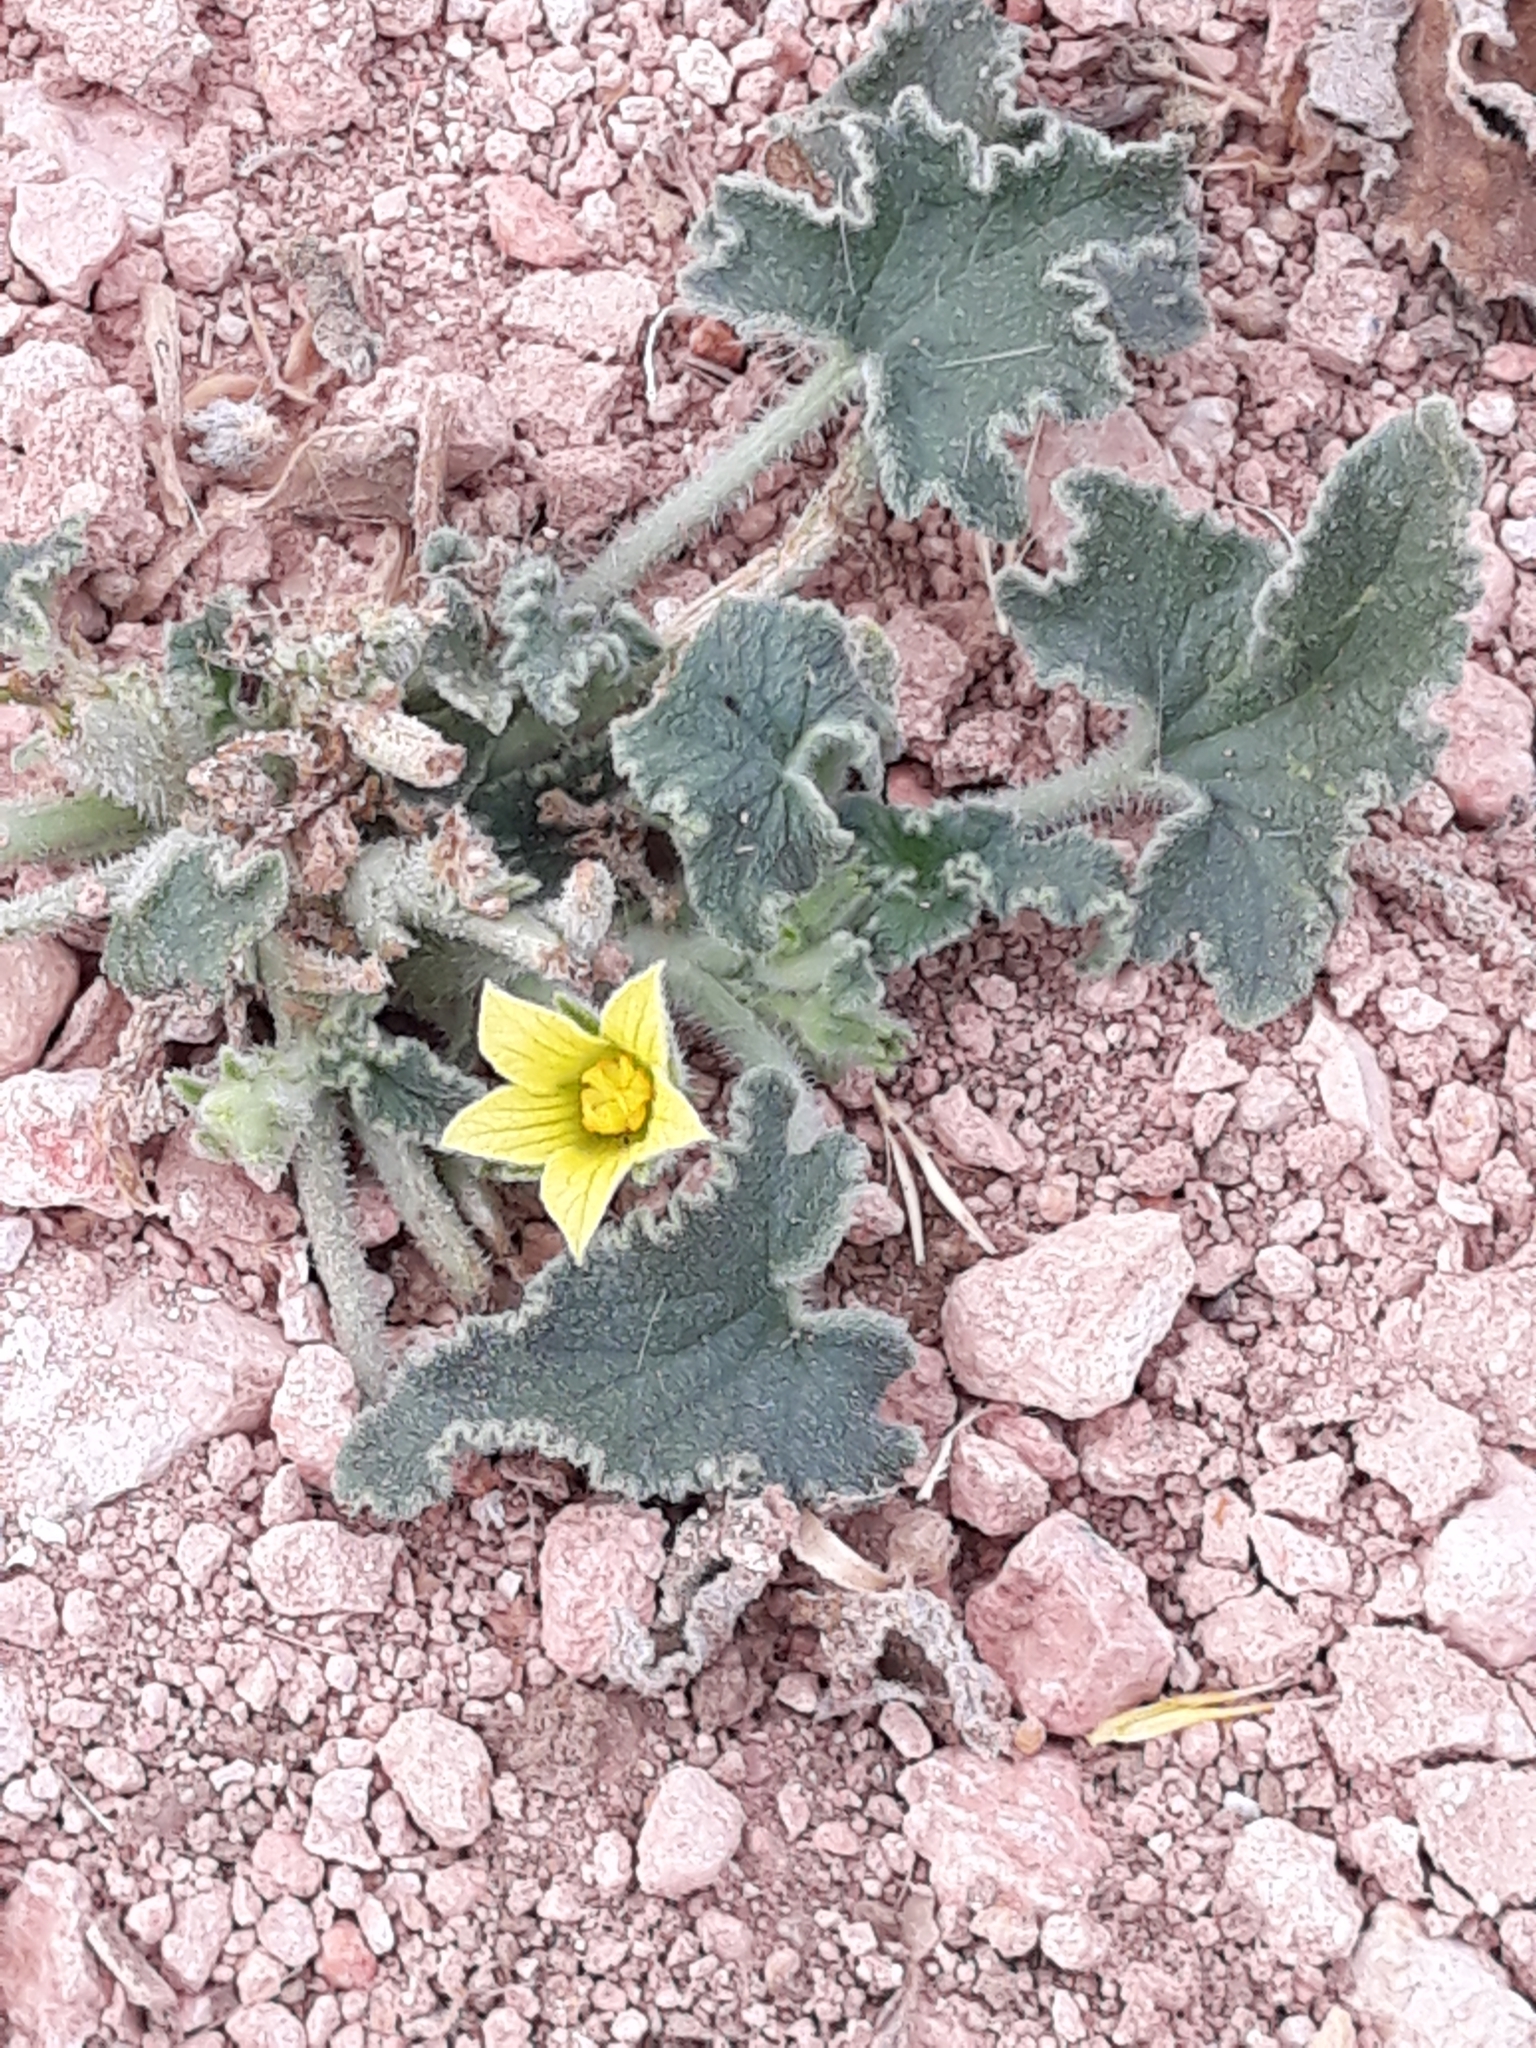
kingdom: Plantae
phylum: Tracheophyta
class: Magnoliopsida
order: Cucurbitales
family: Cucurbitaceae
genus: Ecballium
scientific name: Ecballium elaterium
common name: Squirting cucumber
